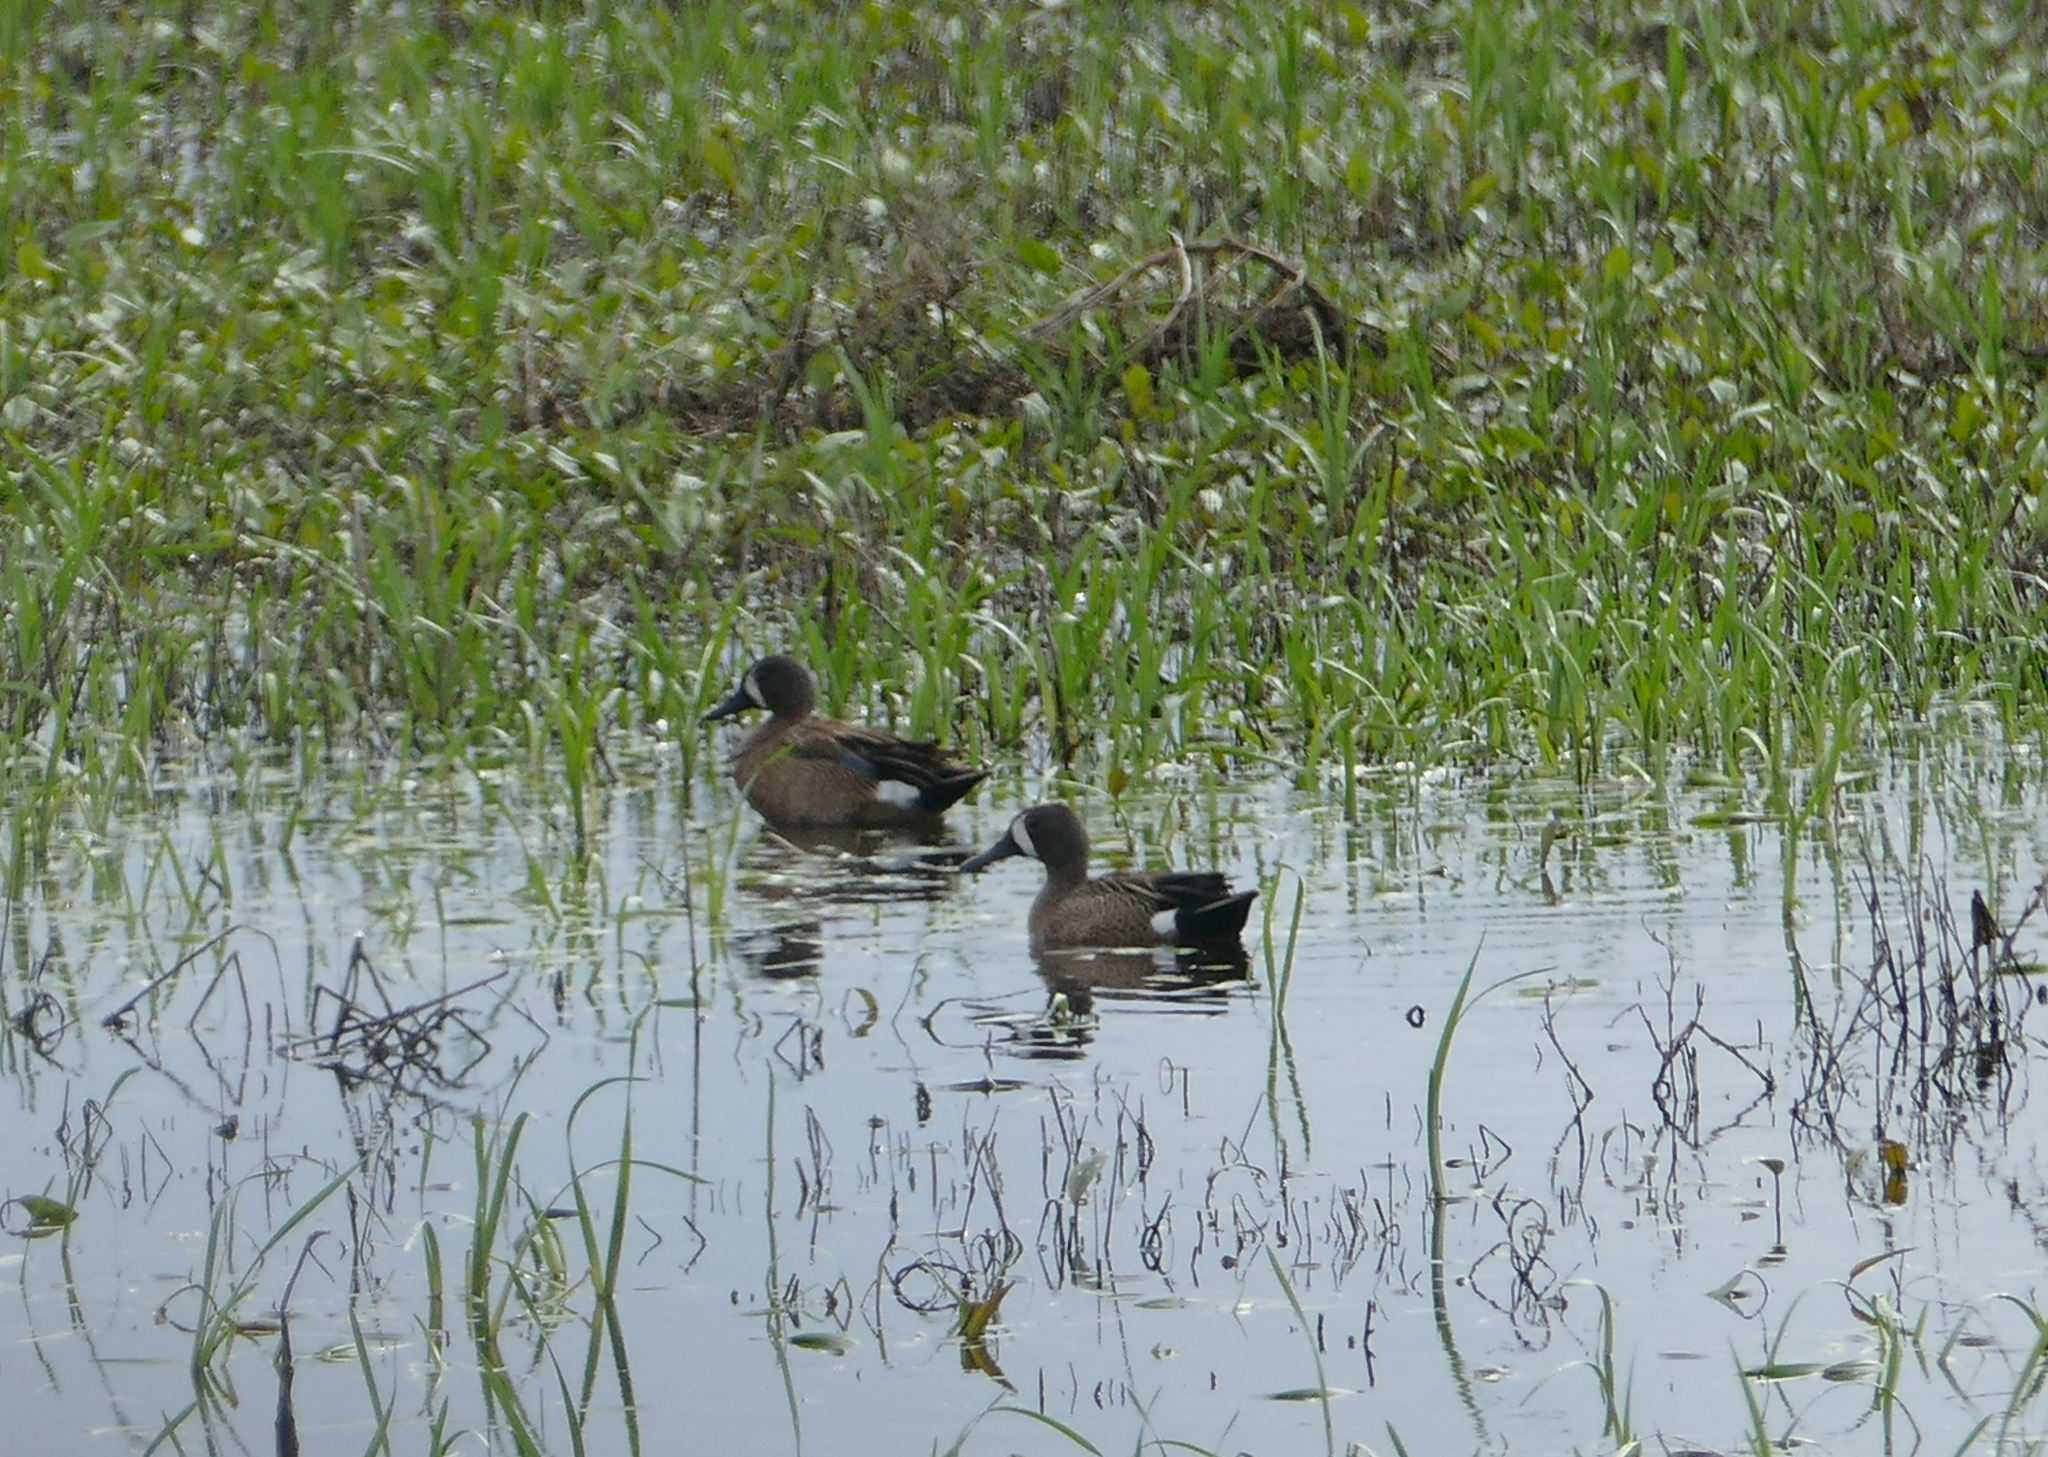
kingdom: Animalia
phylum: Chordata
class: Aves
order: Anseriformes
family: Anatidae
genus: Spatula
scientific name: Spatula discors
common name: Blue-winged teal
